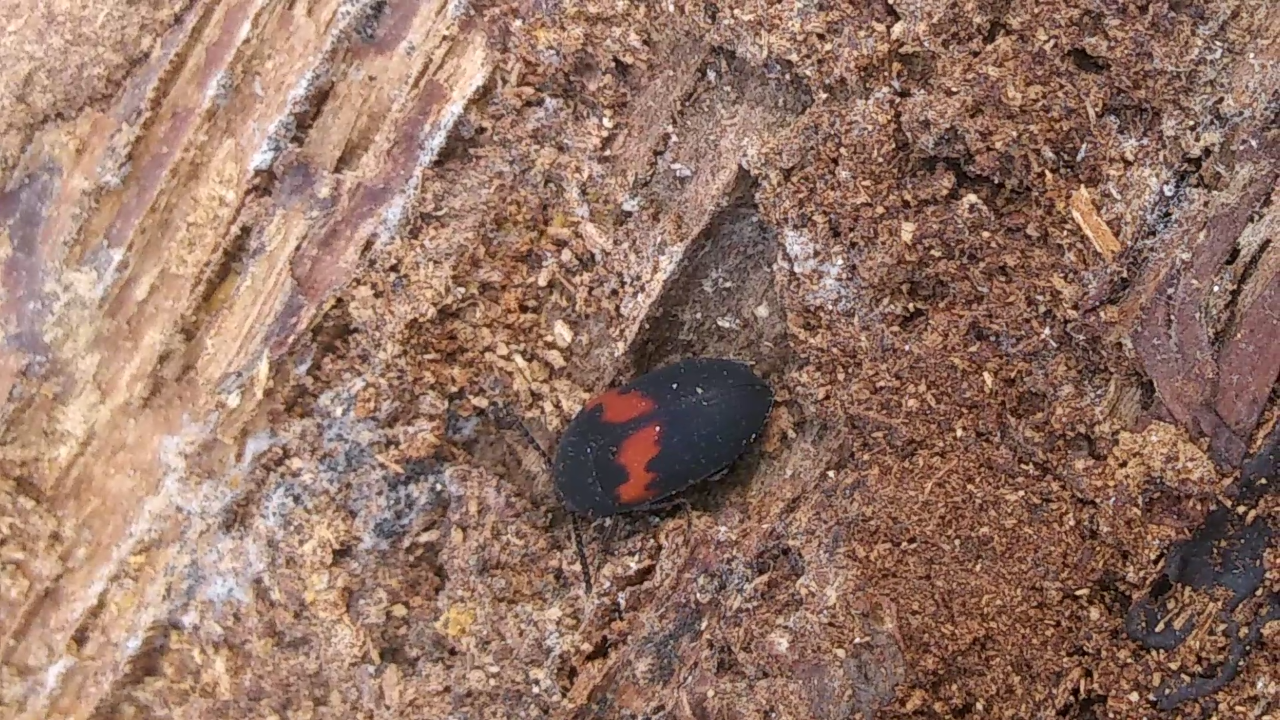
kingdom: Animalia
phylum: Arthropoda
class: Insecta
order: Coleoptera
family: Tenebrionidae
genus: Platydema
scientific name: Platydema elliptica
